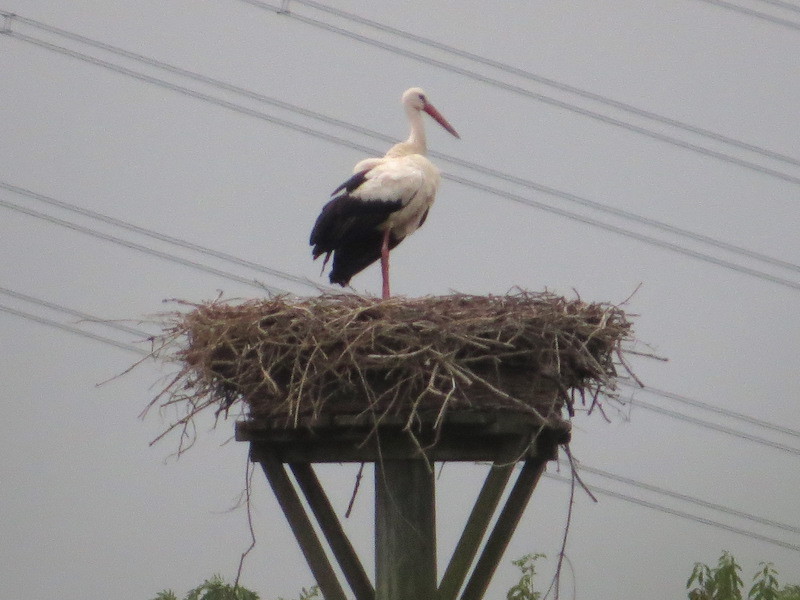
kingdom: Animalia
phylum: Chordata
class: Aves
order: Ciconiiformes
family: Ciconiidae
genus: Ciconia
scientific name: Ciconia ciconia
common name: White stork
